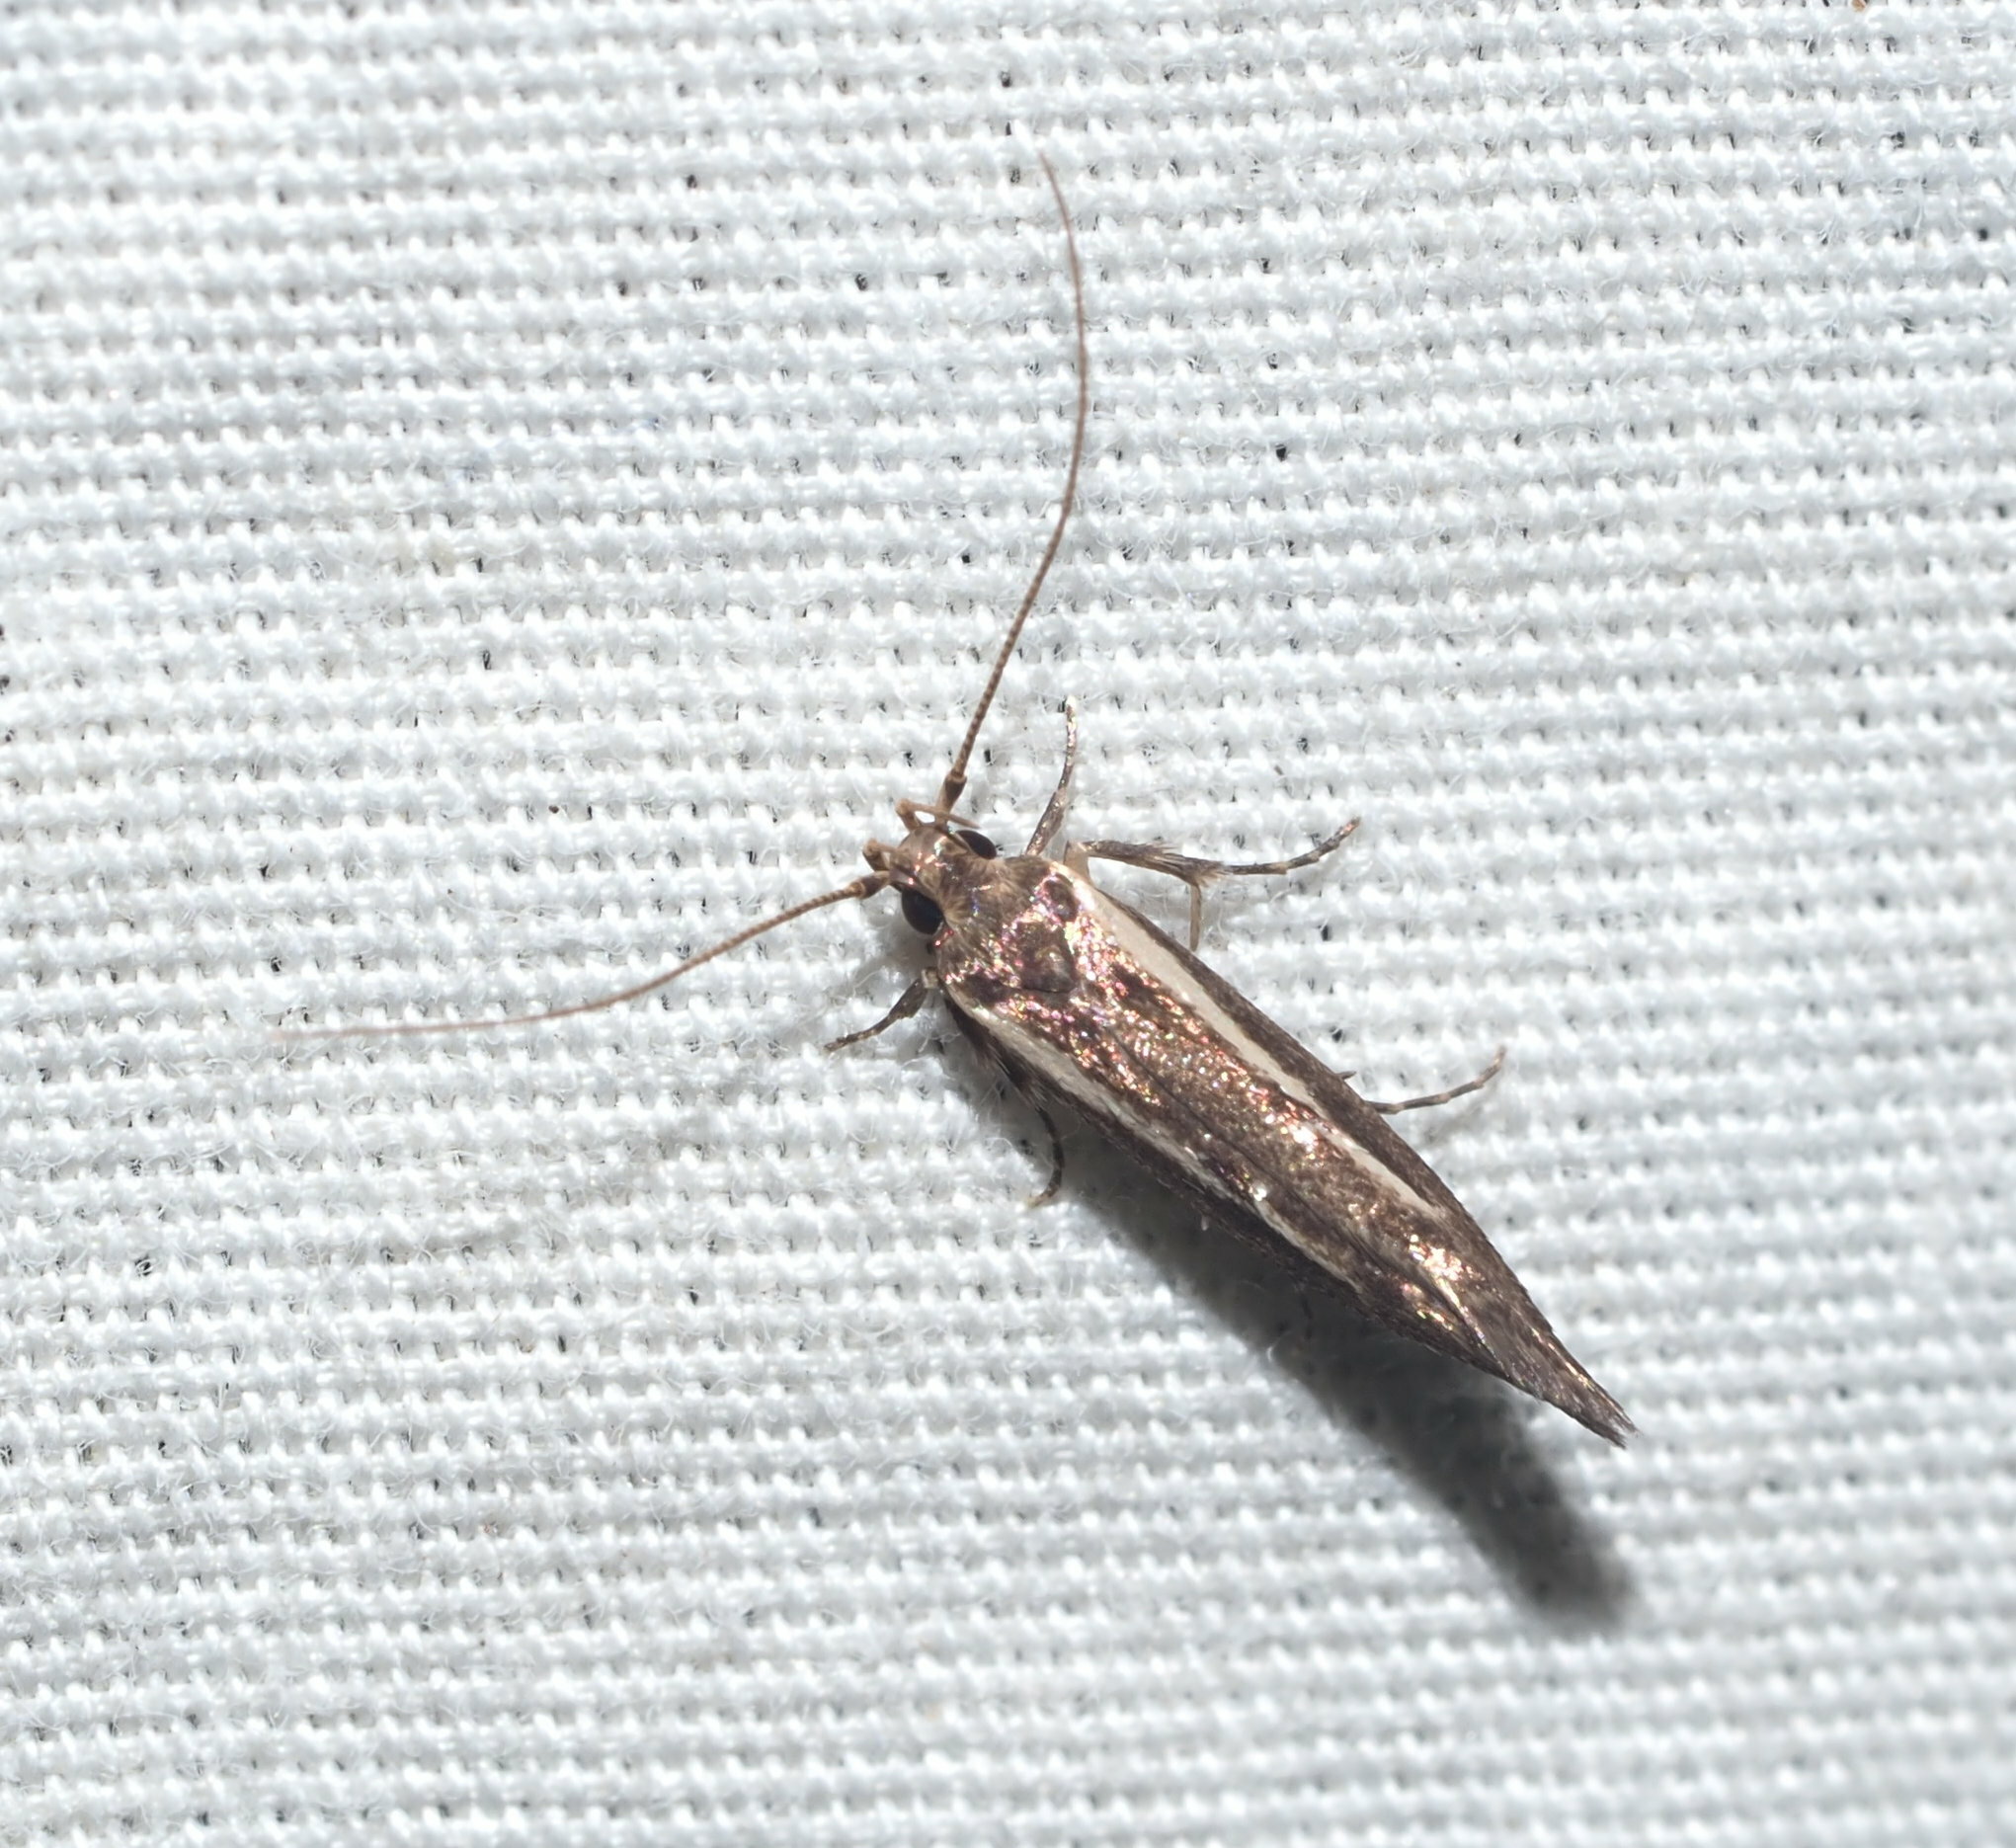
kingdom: Animalia
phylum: Arthropoda
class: Insecta
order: Lepidoptera
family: Cosmopterigidae
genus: Hyposmochoma
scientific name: Hyposmochoma mesorectis
